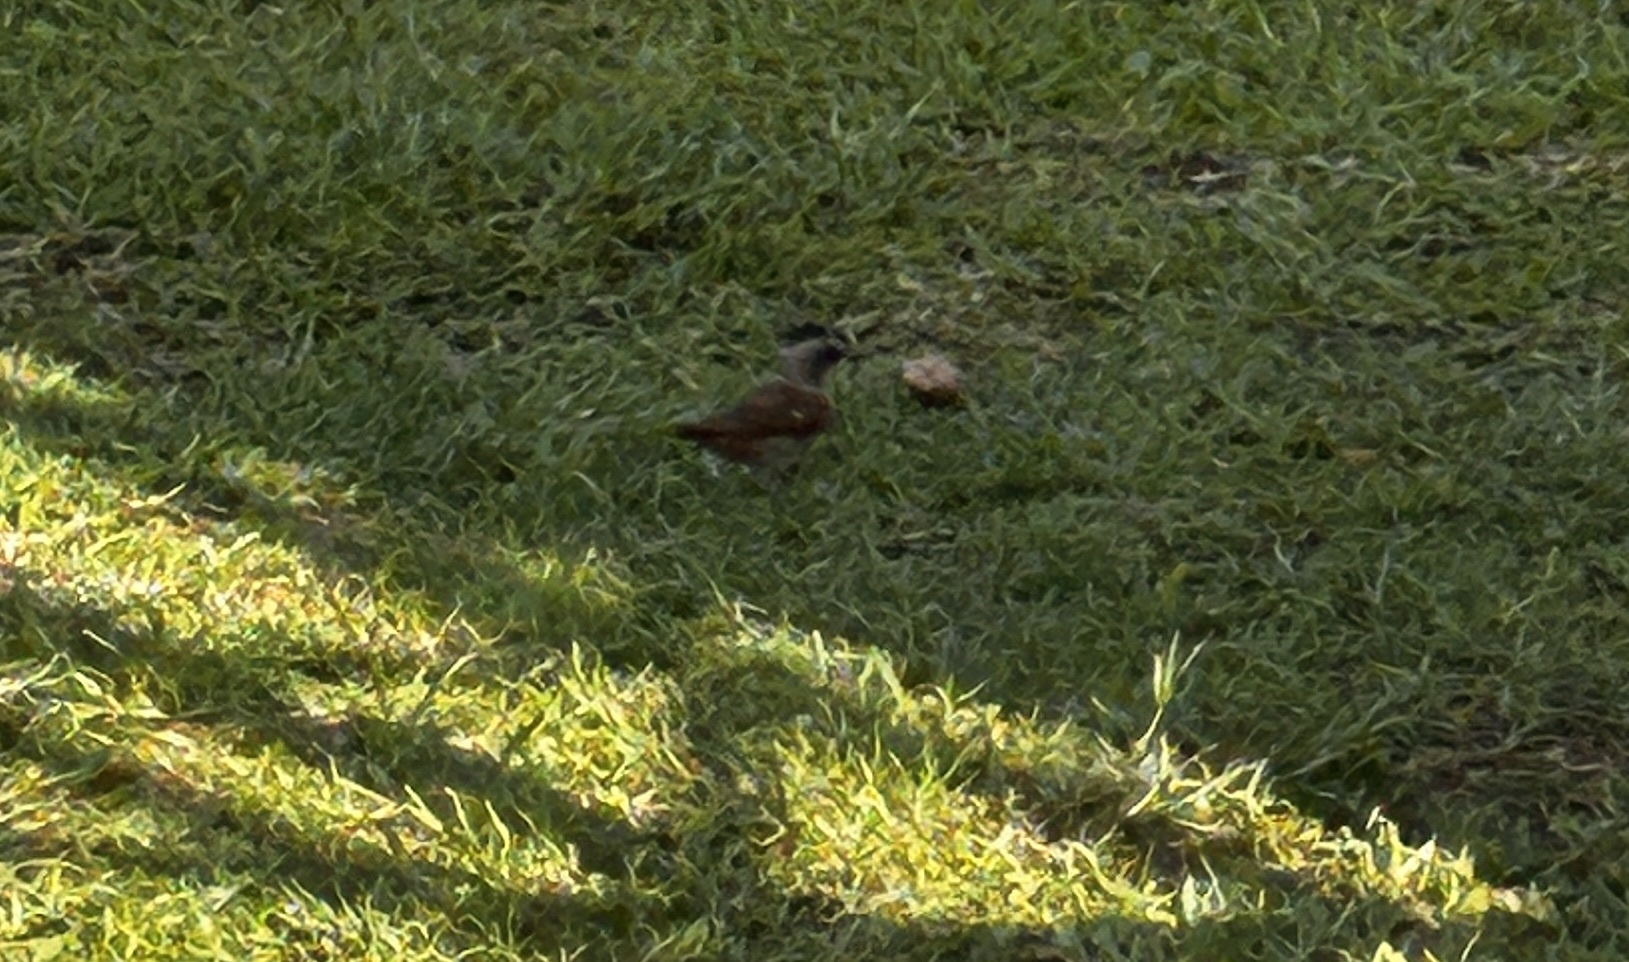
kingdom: Animalia
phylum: Chordata
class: Aves
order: Passeriformes
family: Passeridae
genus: Passer
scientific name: Passer griseus
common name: Northern grey-headed sparrow
